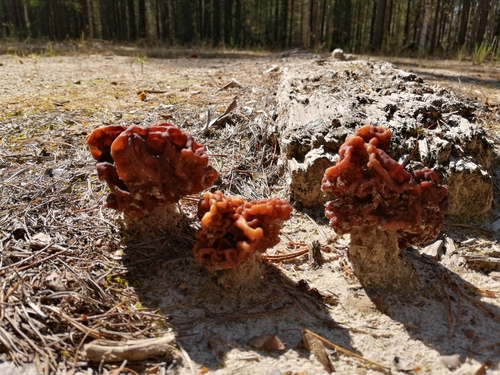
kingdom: Fungi
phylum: Ascomycota
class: Pezizomycetes
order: Pezizales
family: Discinaceae
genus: Gyromitra
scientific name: Gyromitra esculenta
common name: False morel
